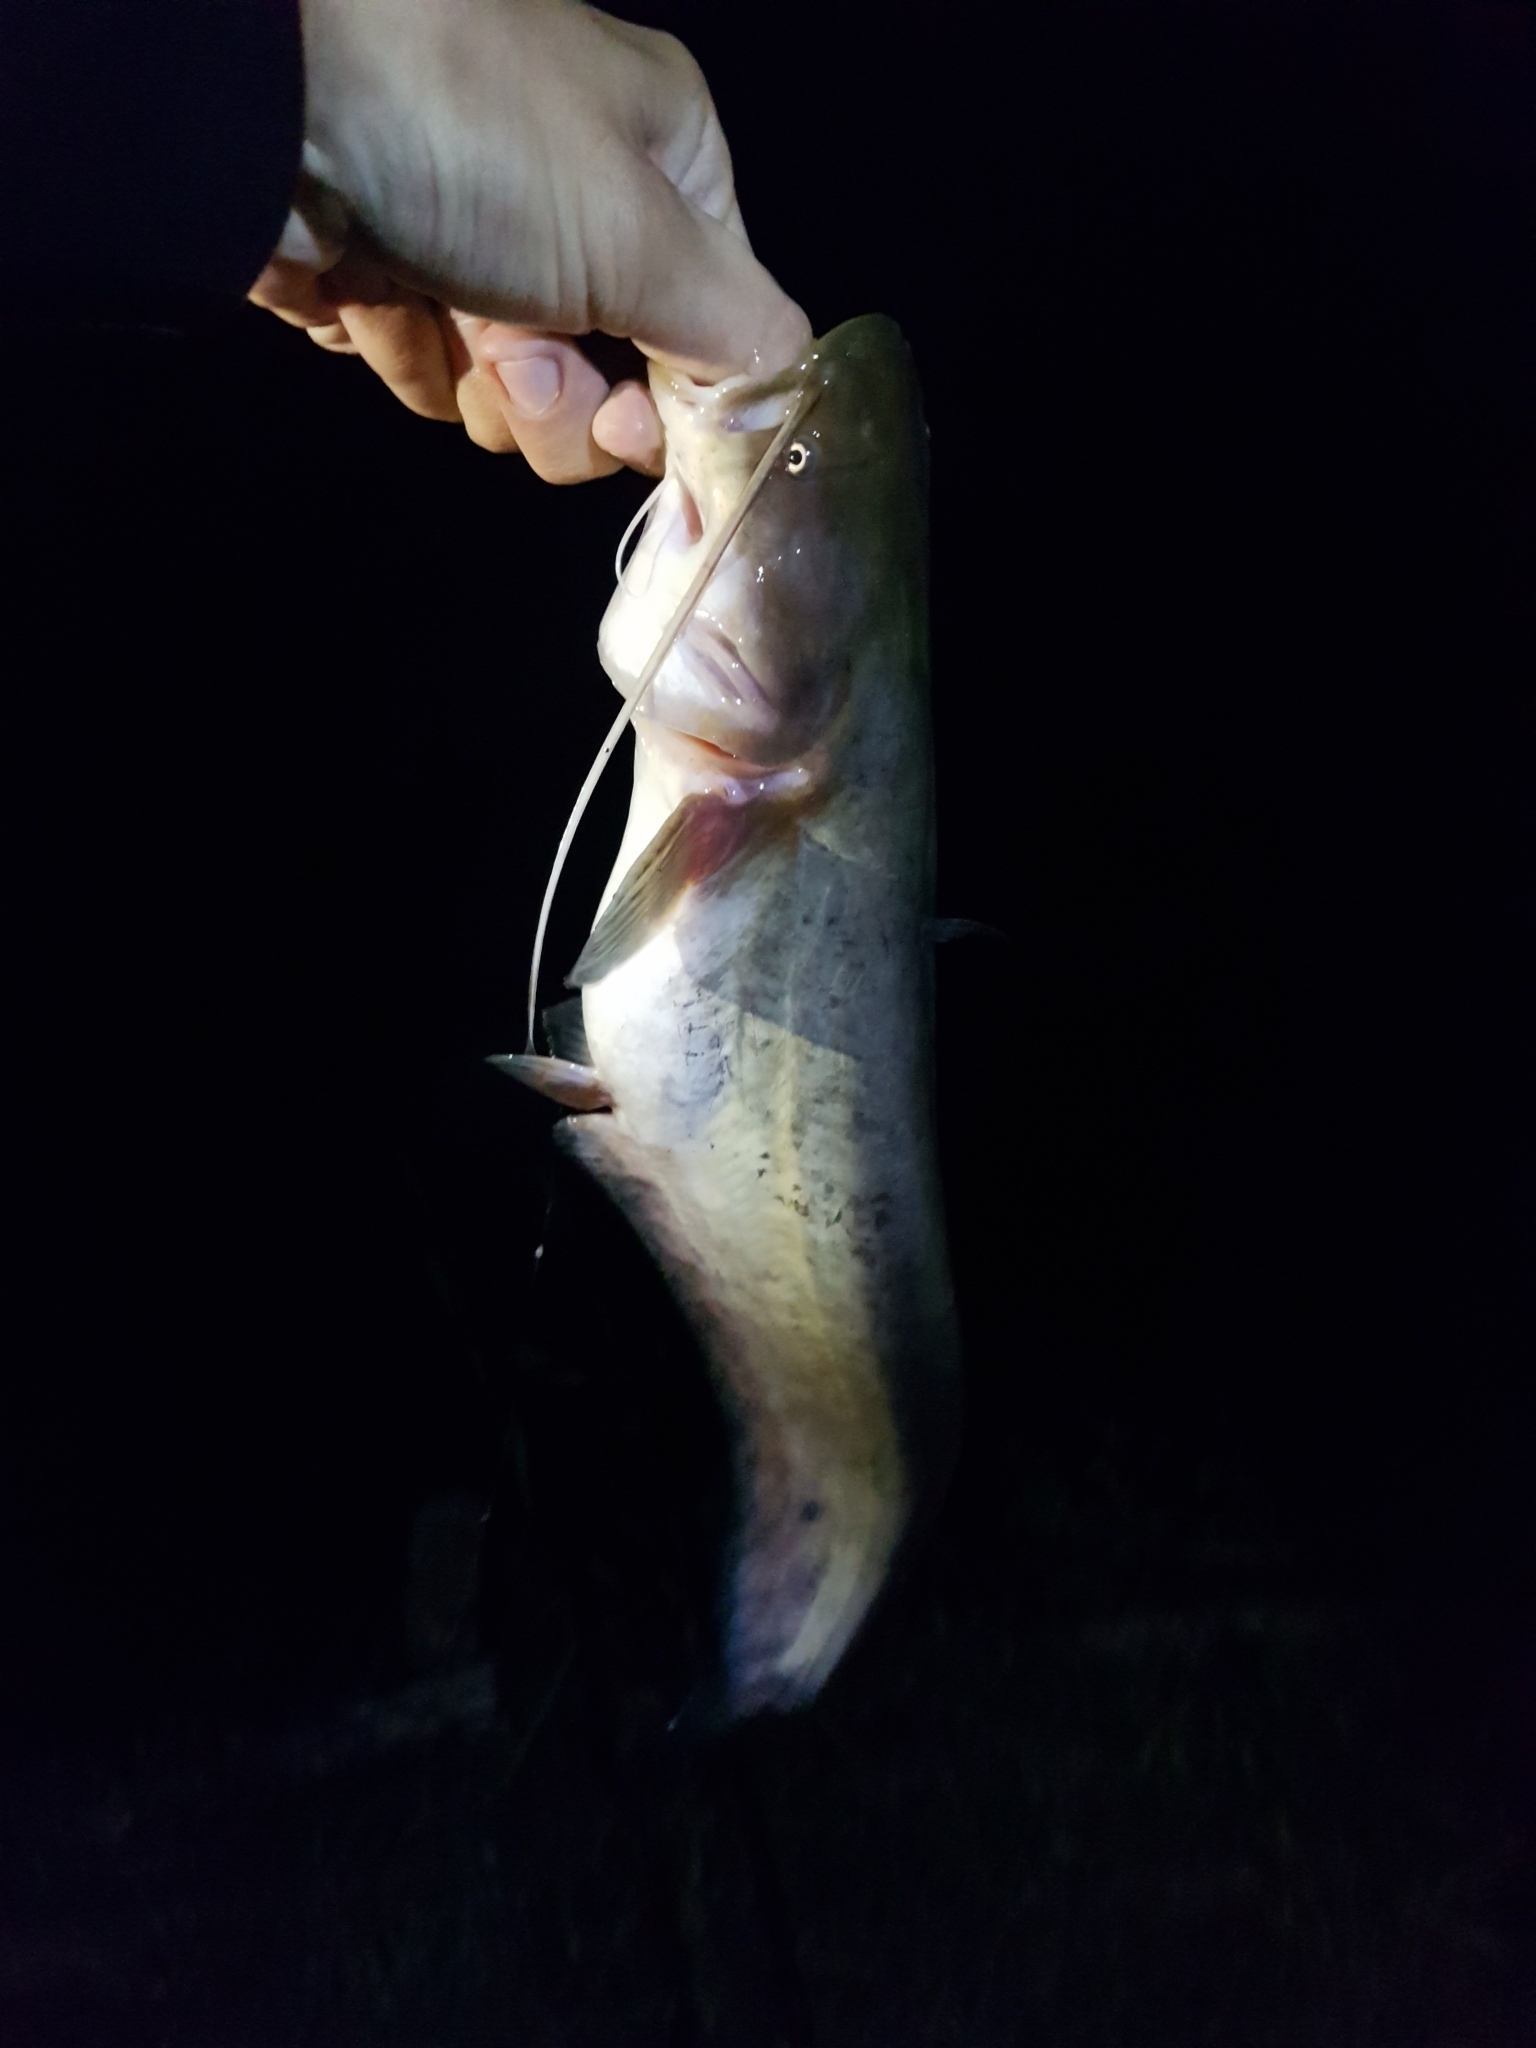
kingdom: Animalia
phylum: Chordata
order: Siluriformes
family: Siluridae
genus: Silurus
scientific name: Silurus glanis
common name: Wels
